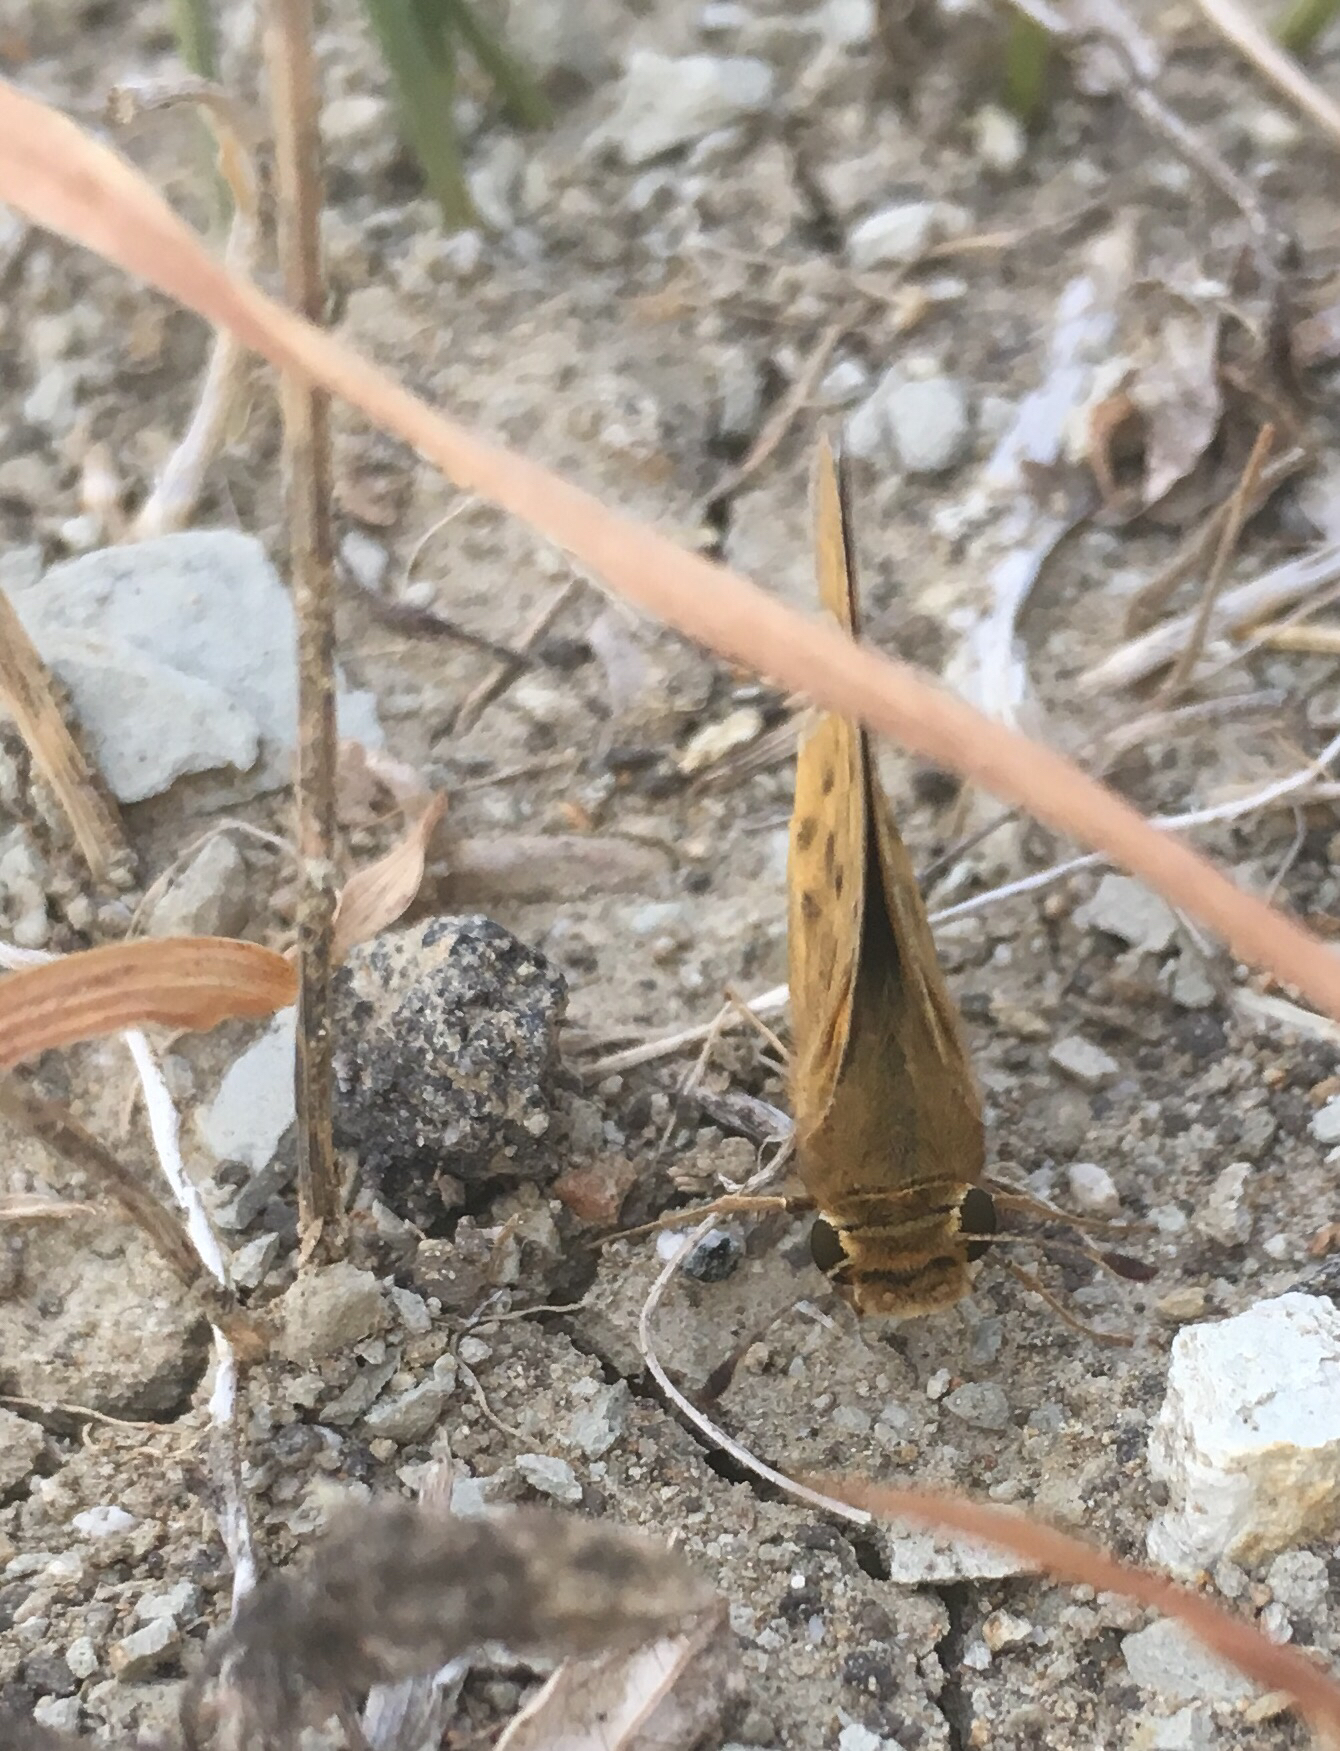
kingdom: Animalia
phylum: Arthropoda
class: Insecta
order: Lepidoptera
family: Hesperiidae
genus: Hylephila
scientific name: Hylephila phyleus
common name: Fiery skipper
